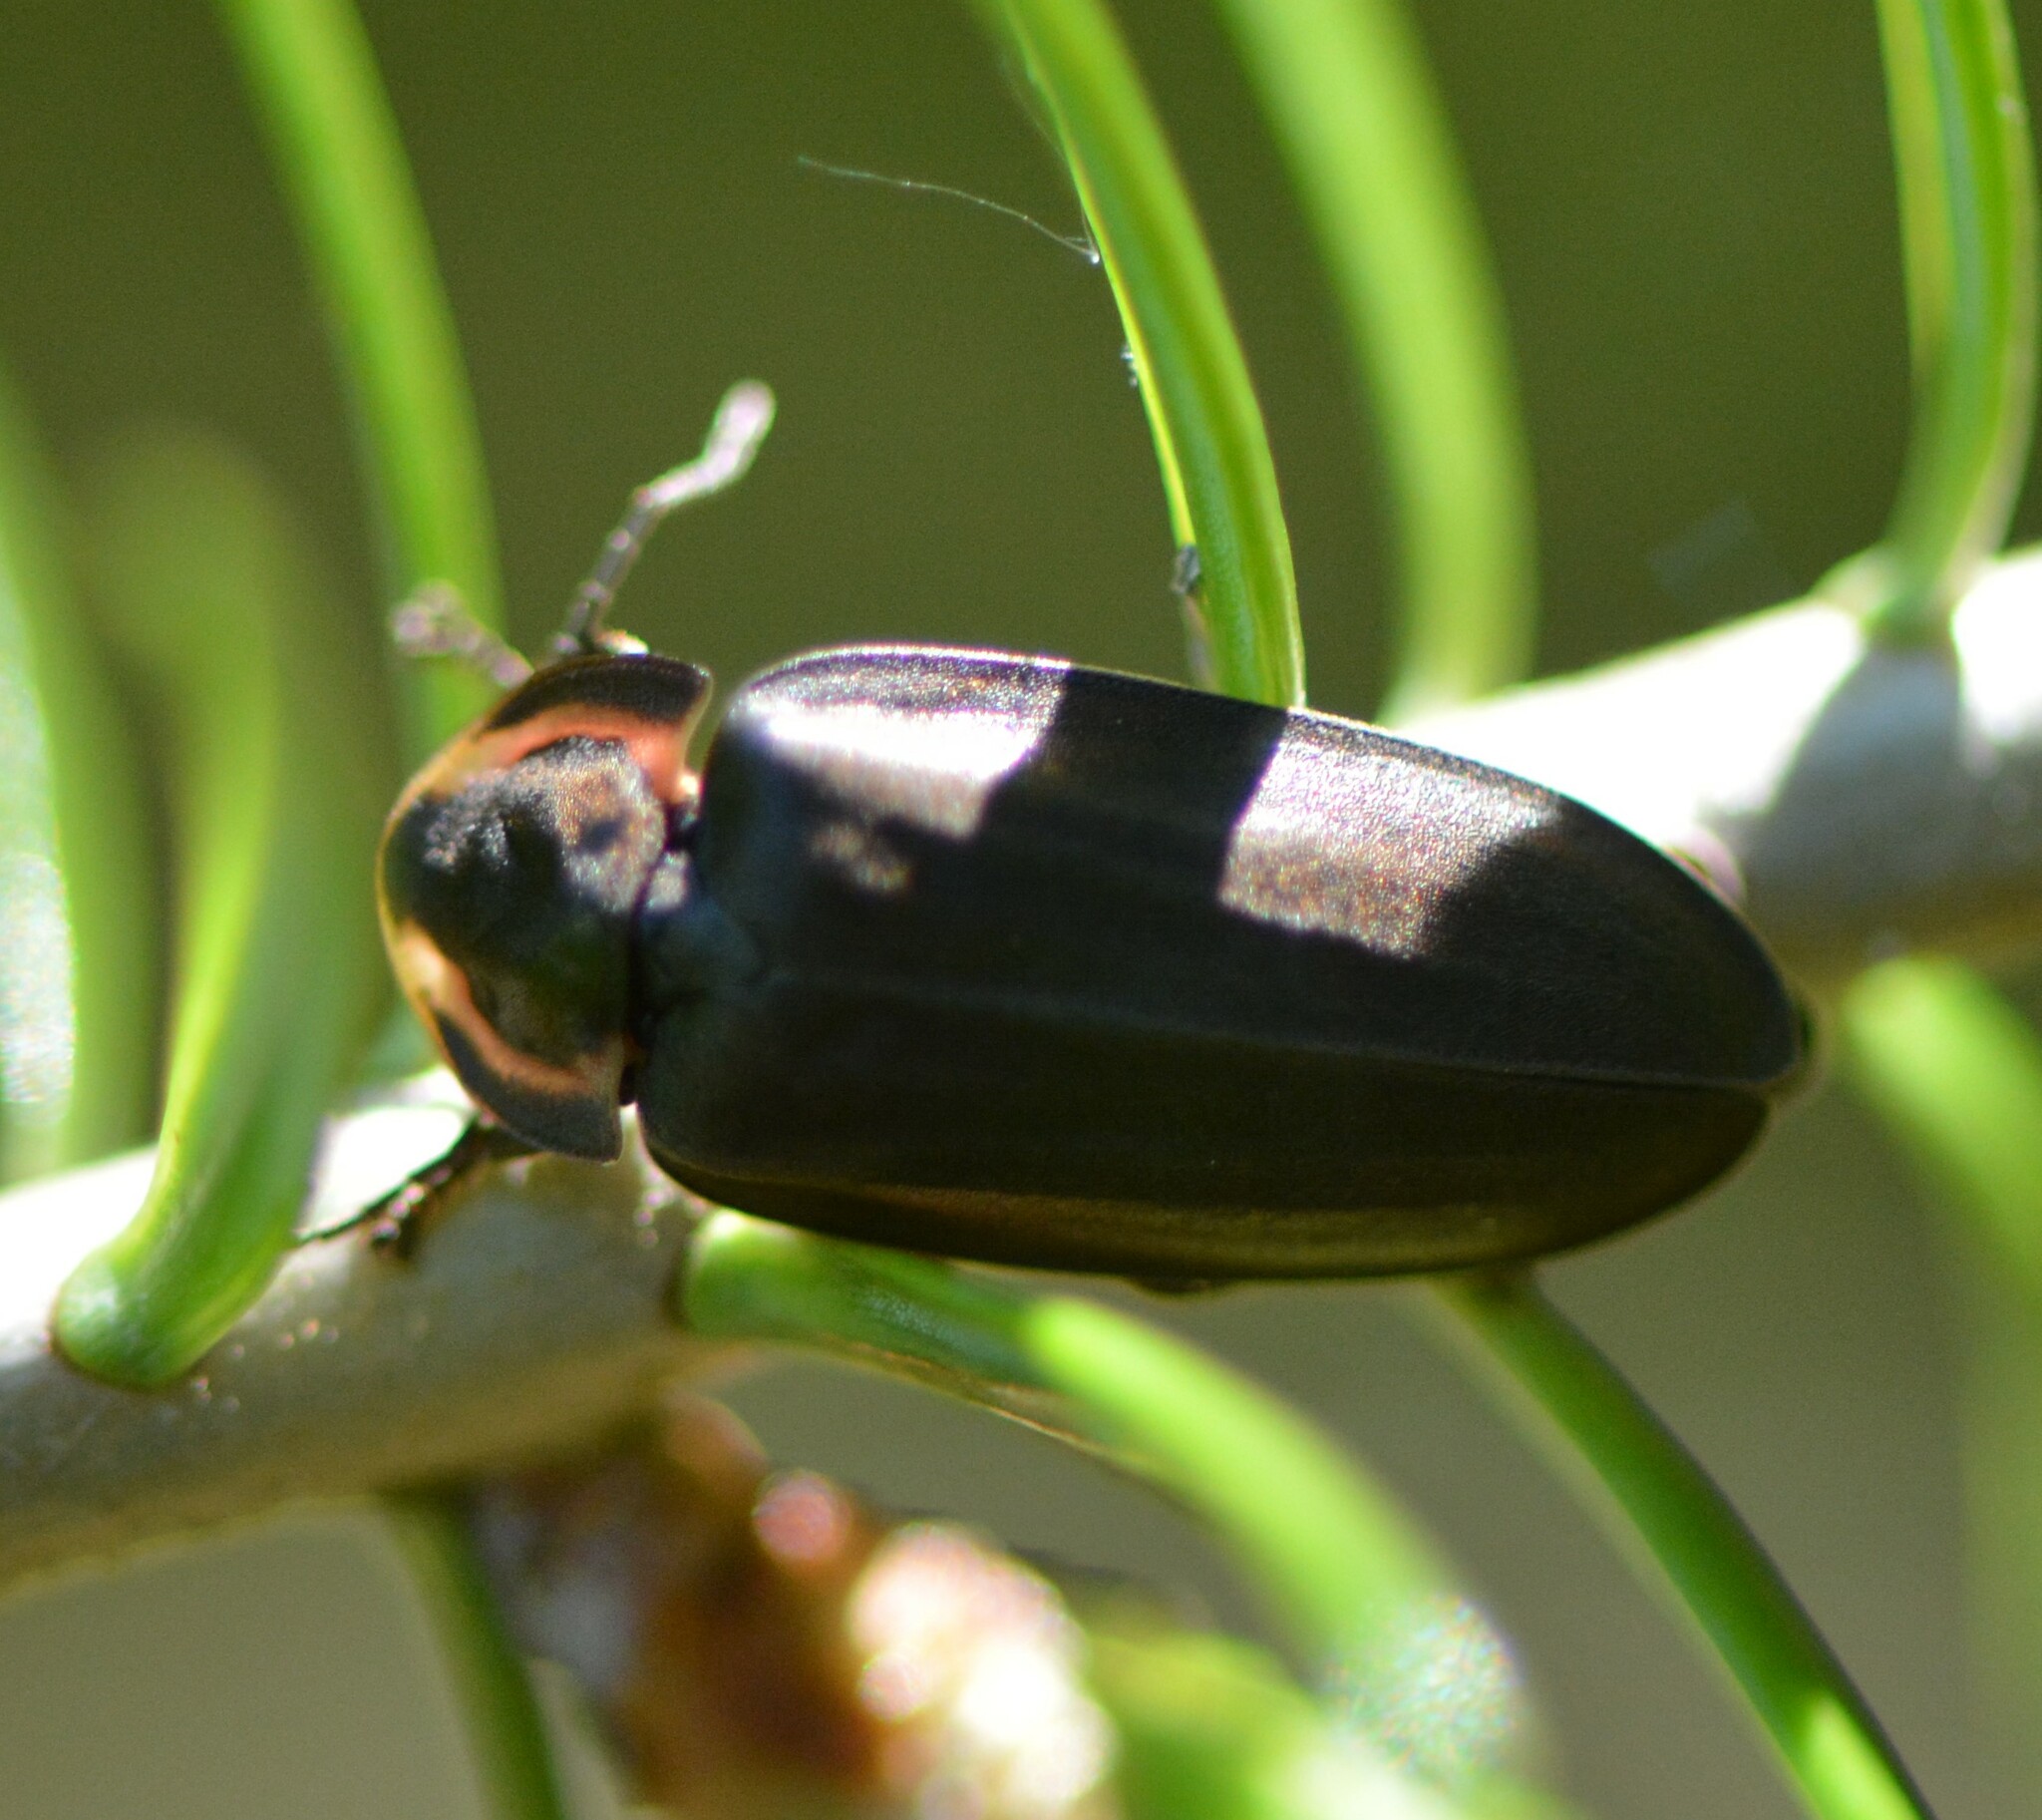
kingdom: Animalia
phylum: Arthropoda
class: Insecta
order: Coleoptera
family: Lampyridae
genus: Photinus
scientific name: Photinus corrusca
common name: Winter firefly
